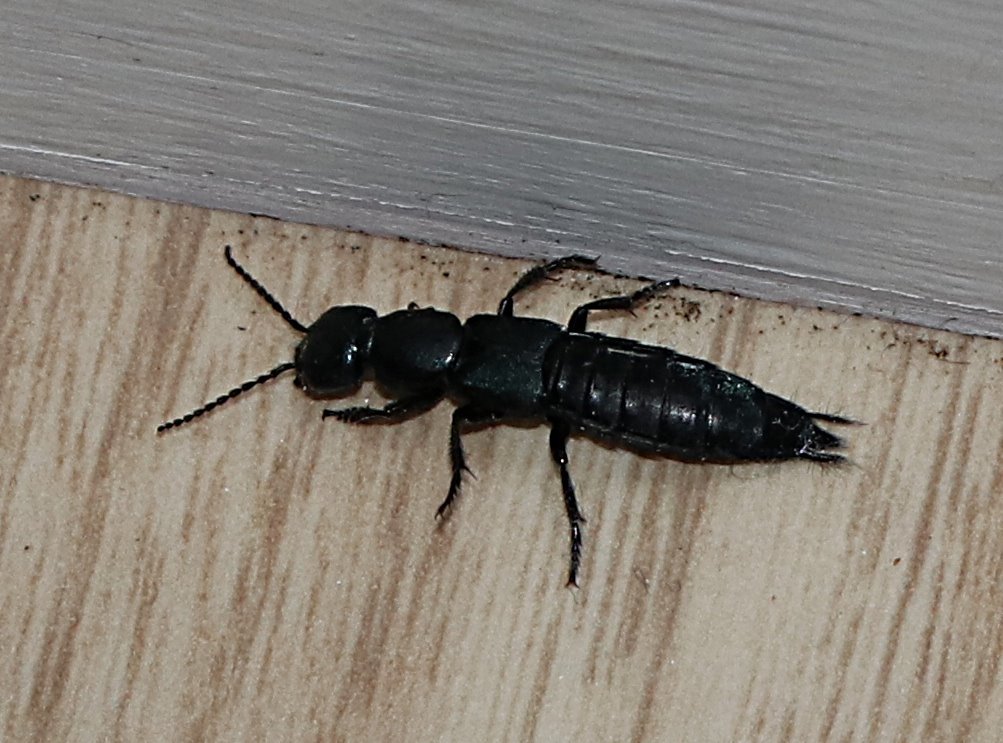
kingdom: Animalia
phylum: Arthropoda
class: Insecta
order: Coleoptera
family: Staphylinidae
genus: Ocypus
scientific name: Ocypus ophthalmicus
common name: Blue rove-beetle
